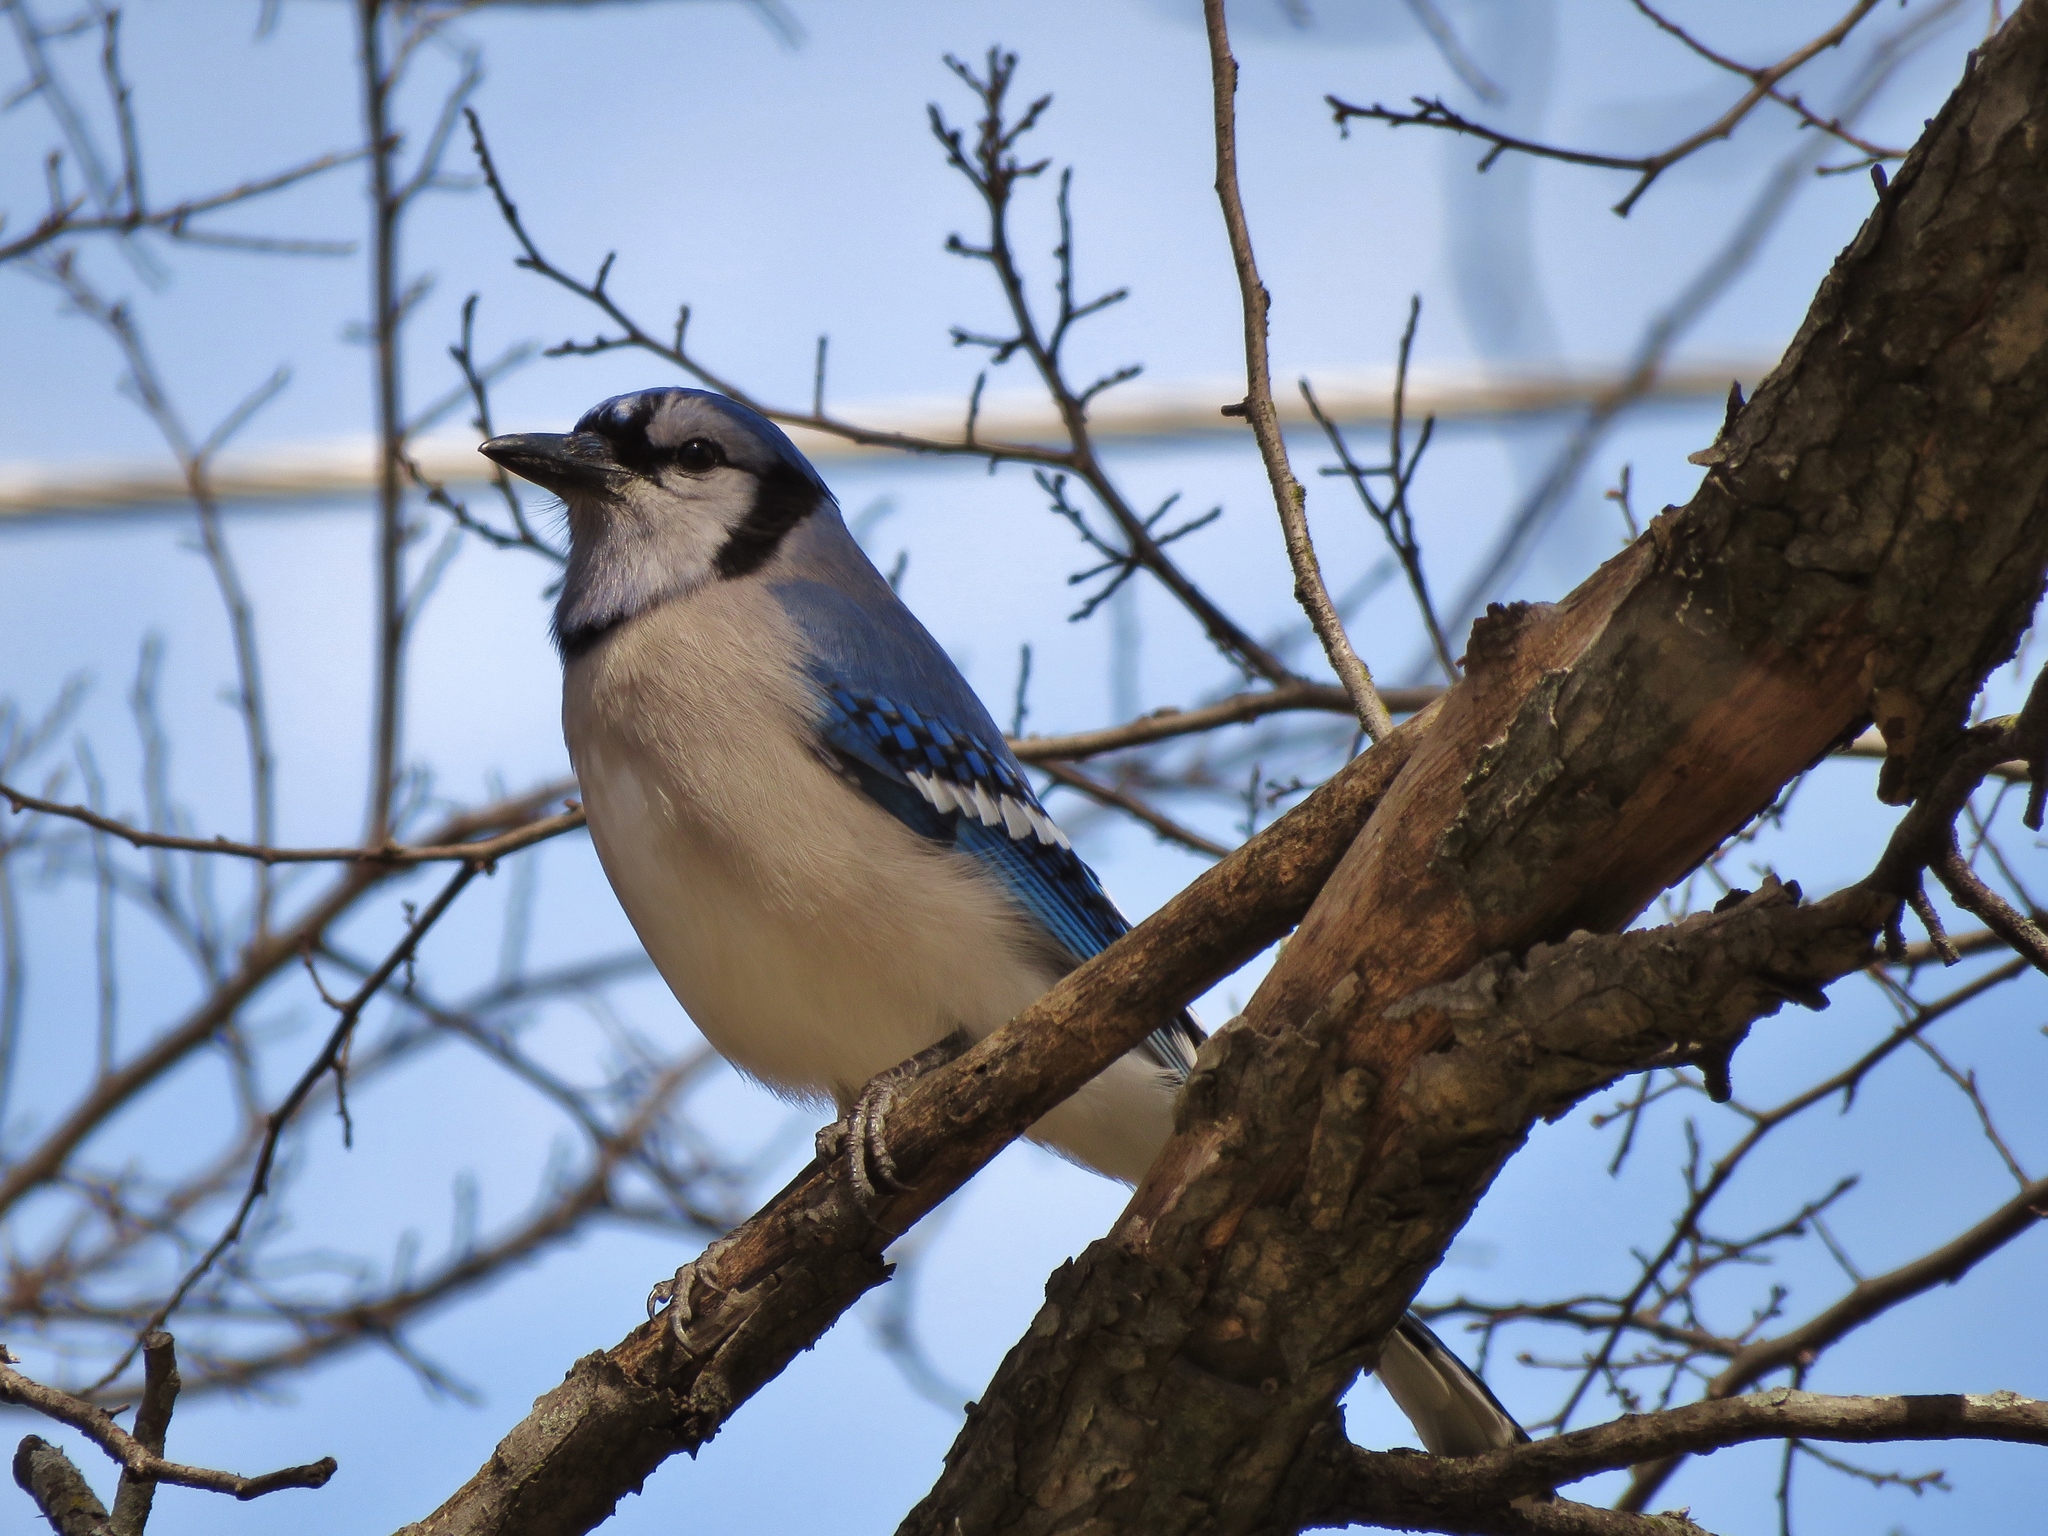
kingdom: Animalia
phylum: Chordata
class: Aves
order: Passeriformes
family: Corvidae
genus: Cyanocitta
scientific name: Cyanocitta cristata
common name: Blue jay
